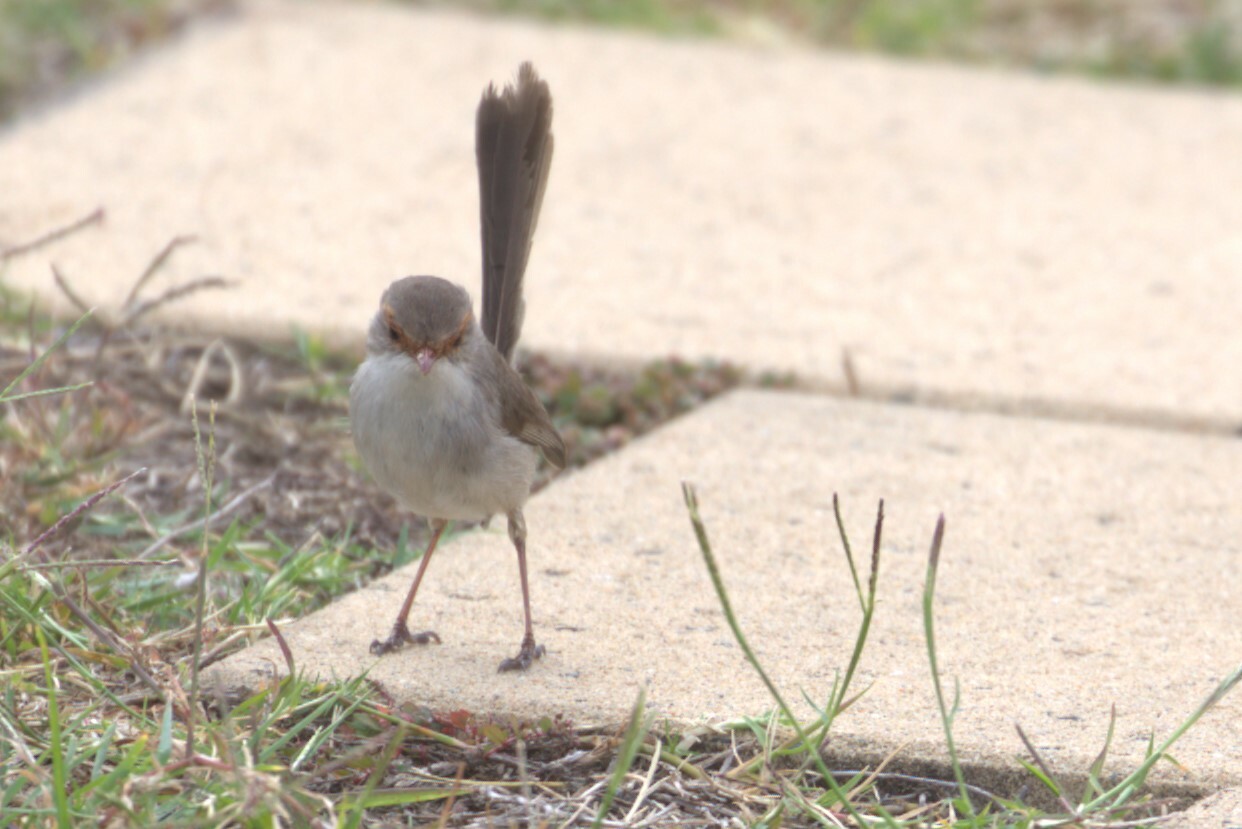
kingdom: Animalia
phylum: Chordata
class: Aves
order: Passeriformes
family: Maluridae
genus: Malurus
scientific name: Malurus cyaneus
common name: Superb fairywren
